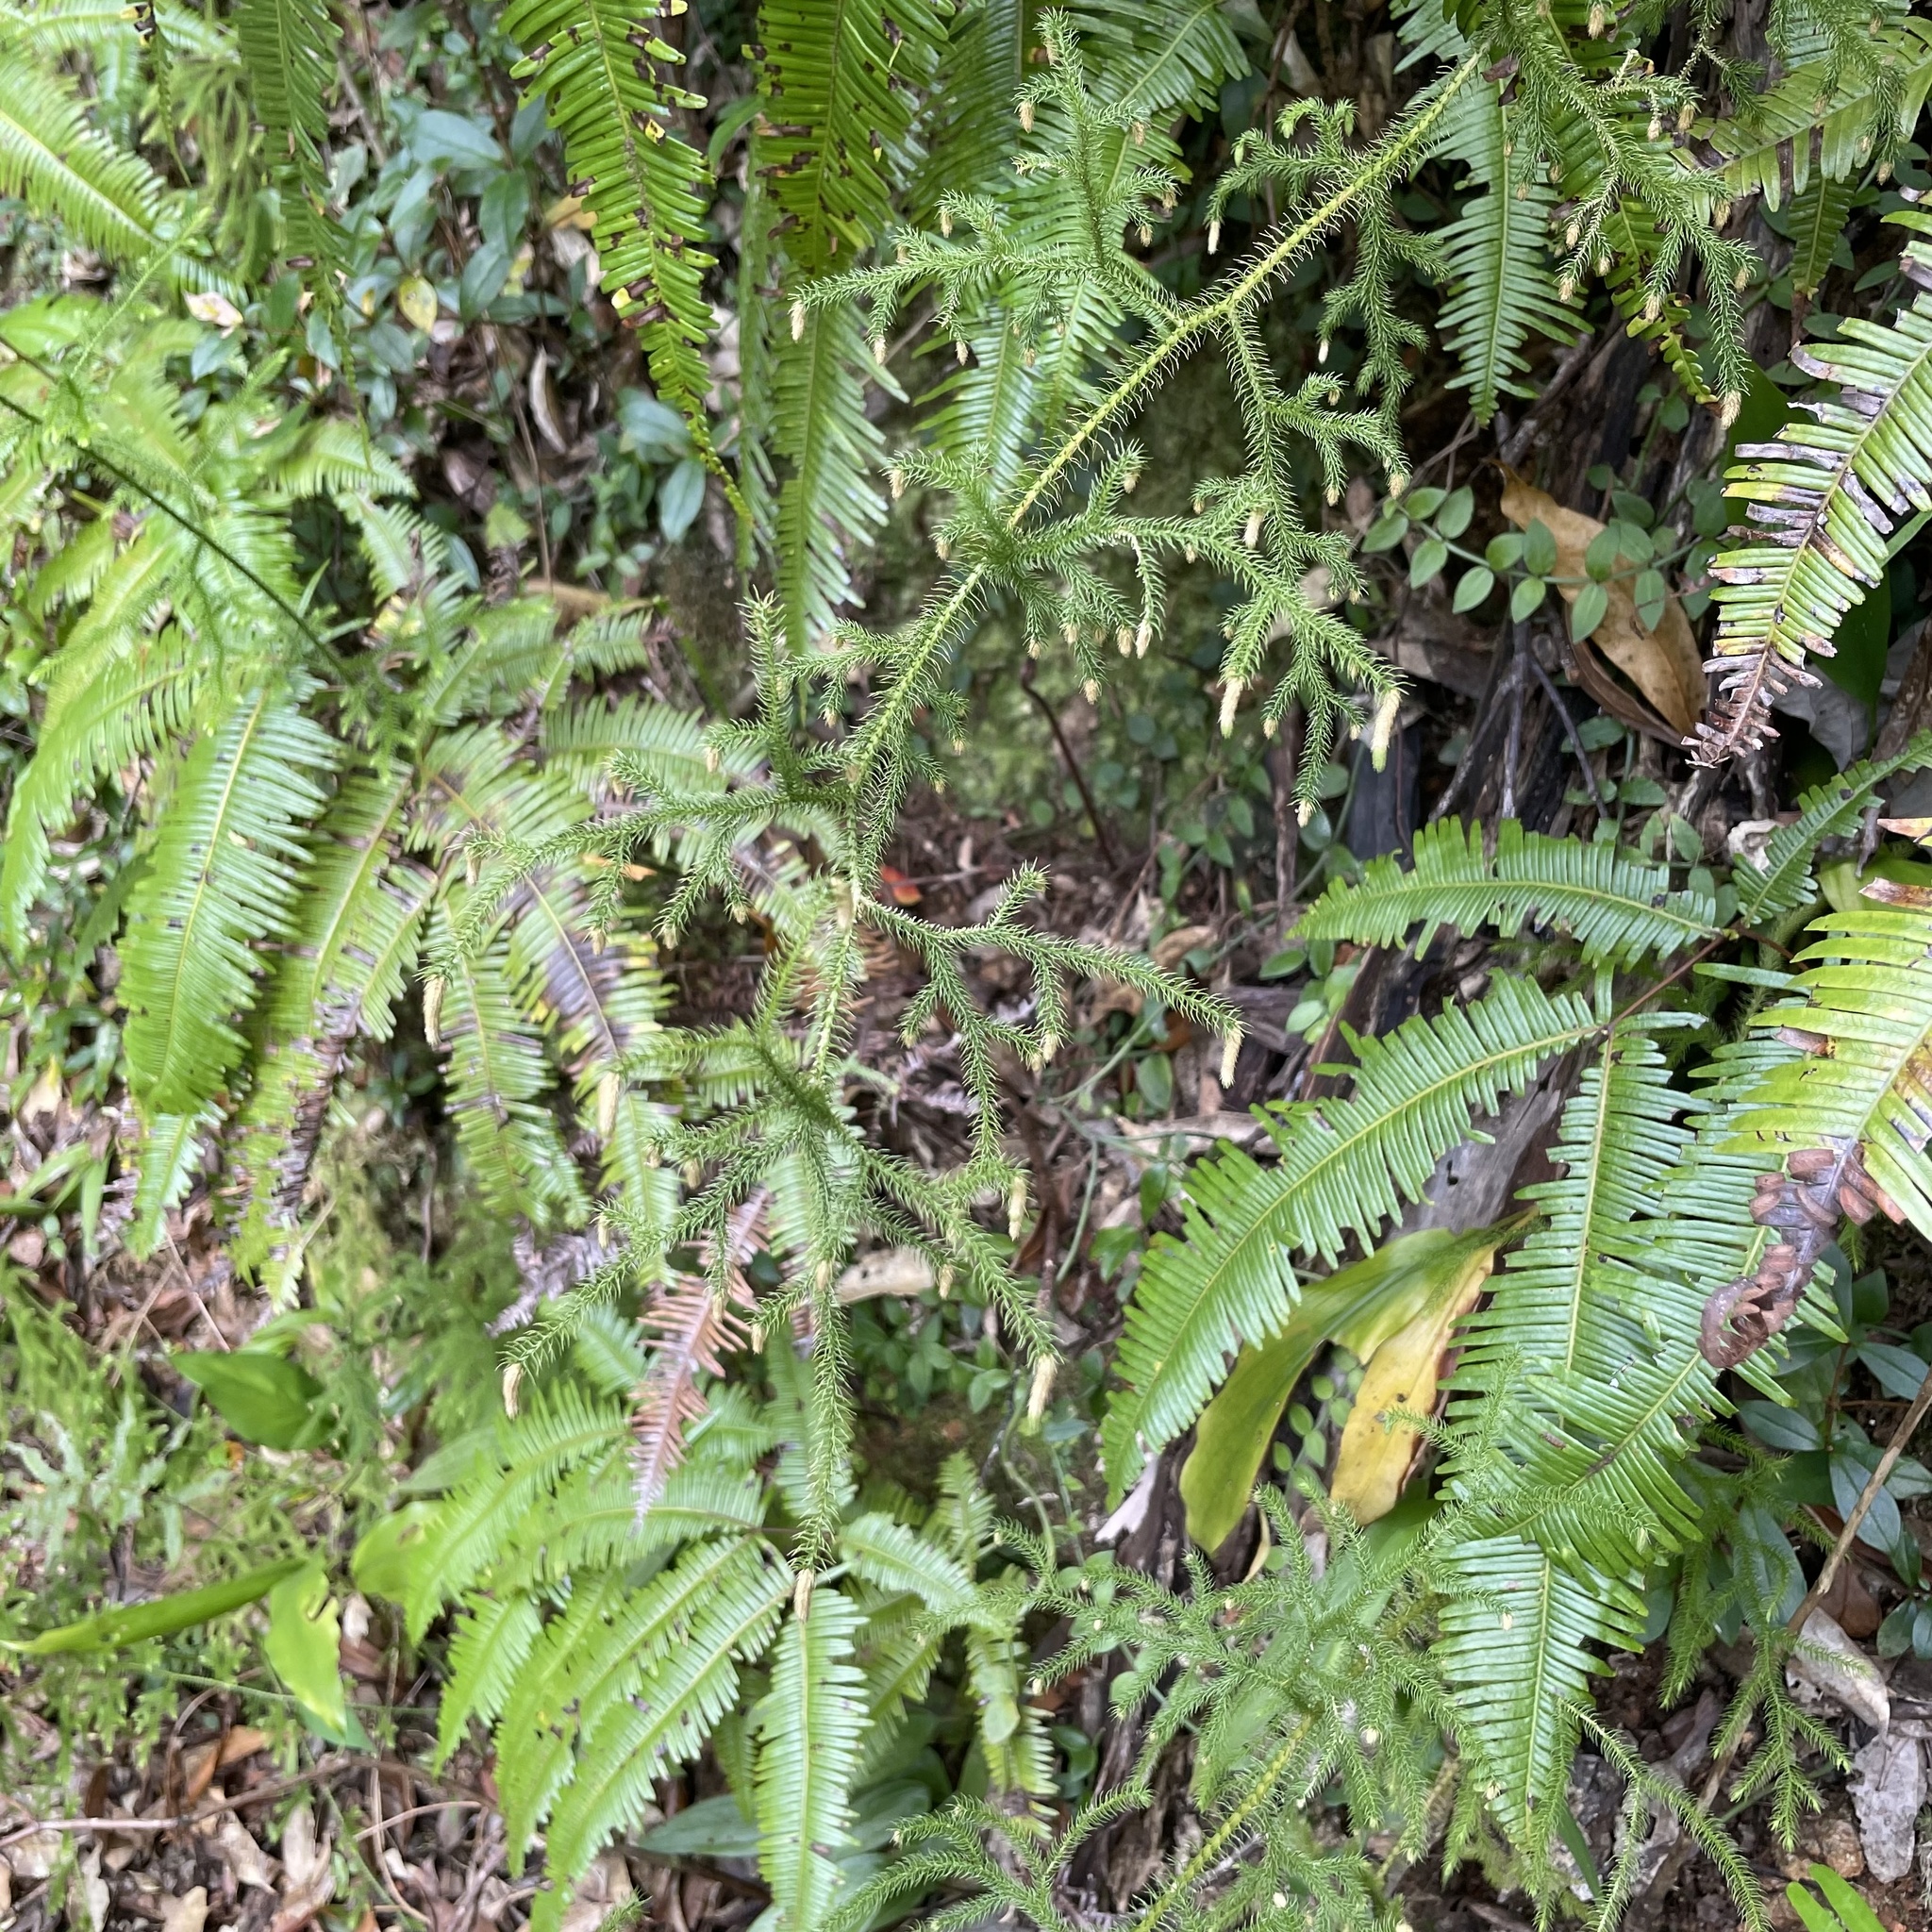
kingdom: Plantae
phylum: Tracheophyta
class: Lycopodiopsida
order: Lycopodiales
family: Lycopodiaceae
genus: Palhinhaea
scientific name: Palhinhaea cernua
